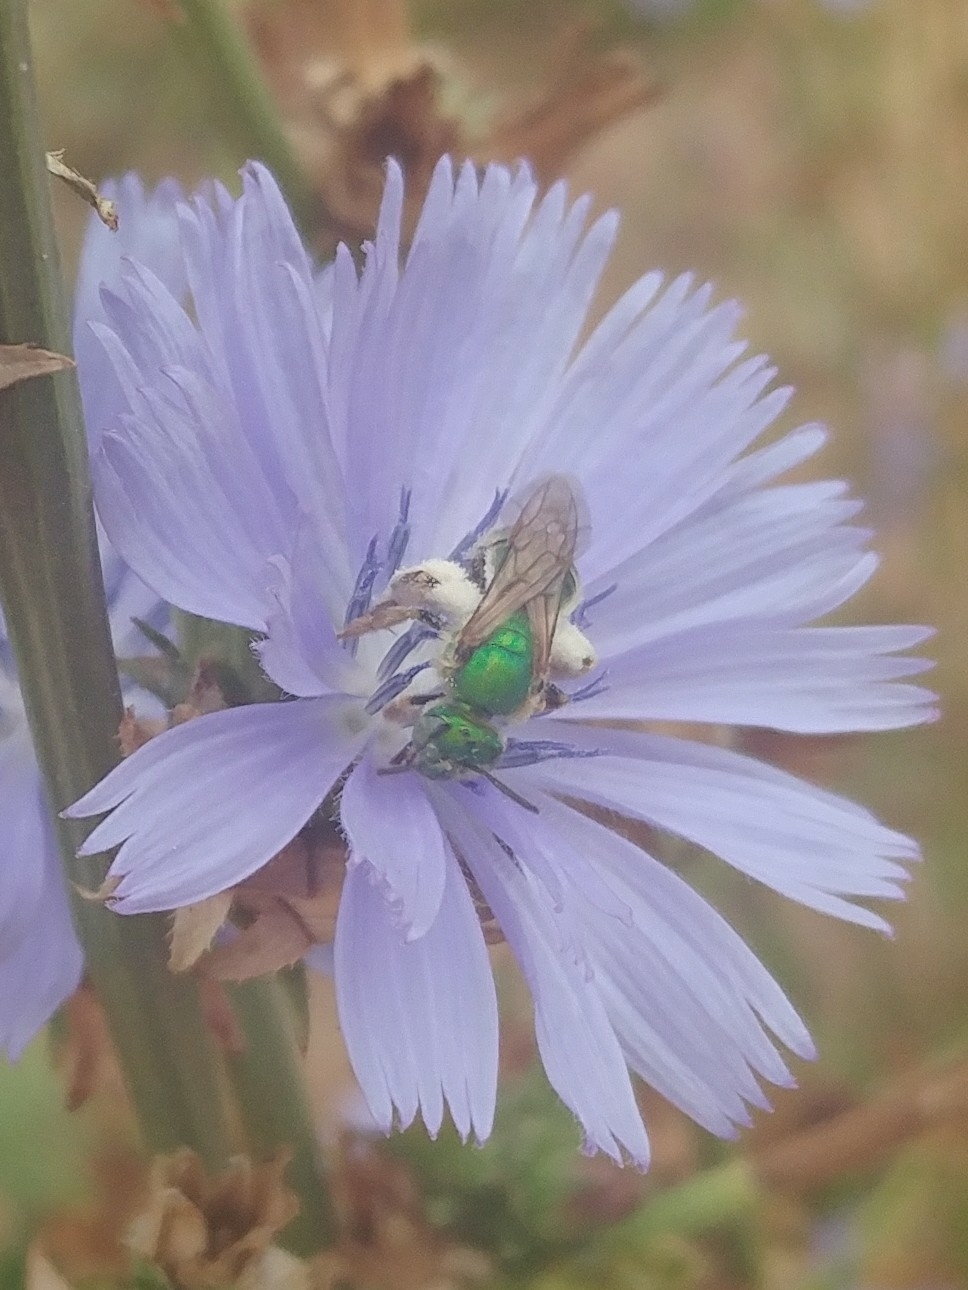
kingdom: Animalia
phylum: Arthropoda
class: Insecta
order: Hymenoptera
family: Halictidae
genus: Agapostemon
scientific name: Agapostemon texanus
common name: Texas striped sweat bee
